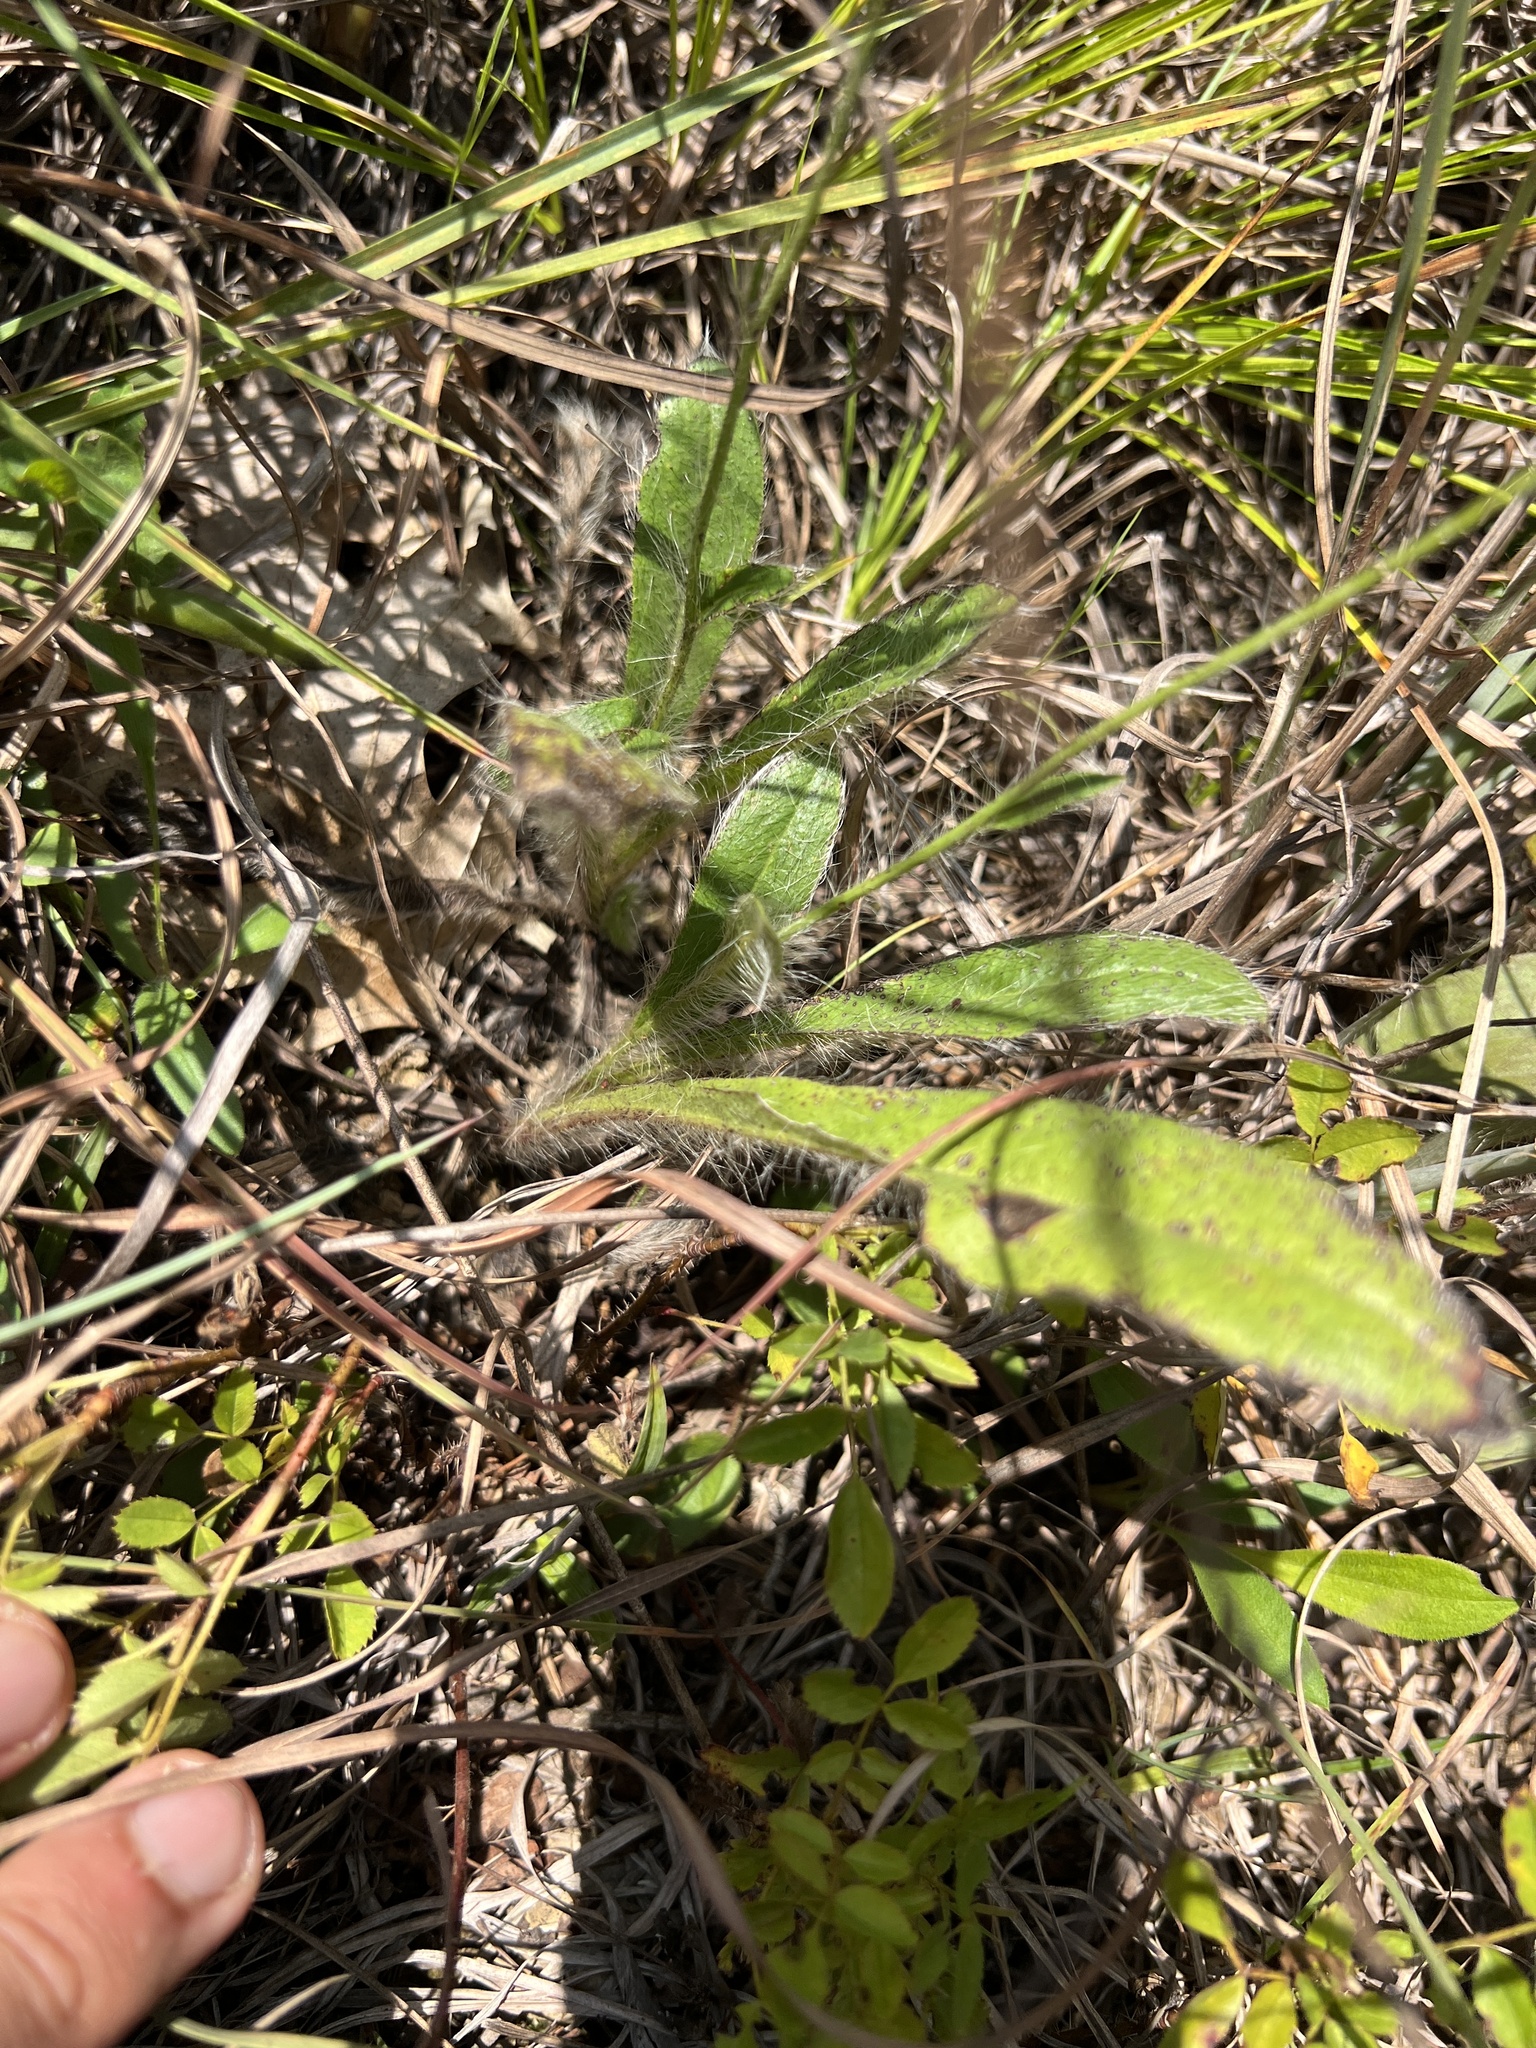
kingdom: Plantae
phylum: Tracheophyta
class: Magnoliopsida
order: Asterales
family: Asteraceae
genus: Hieracium
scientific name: Hieracium longipilum
